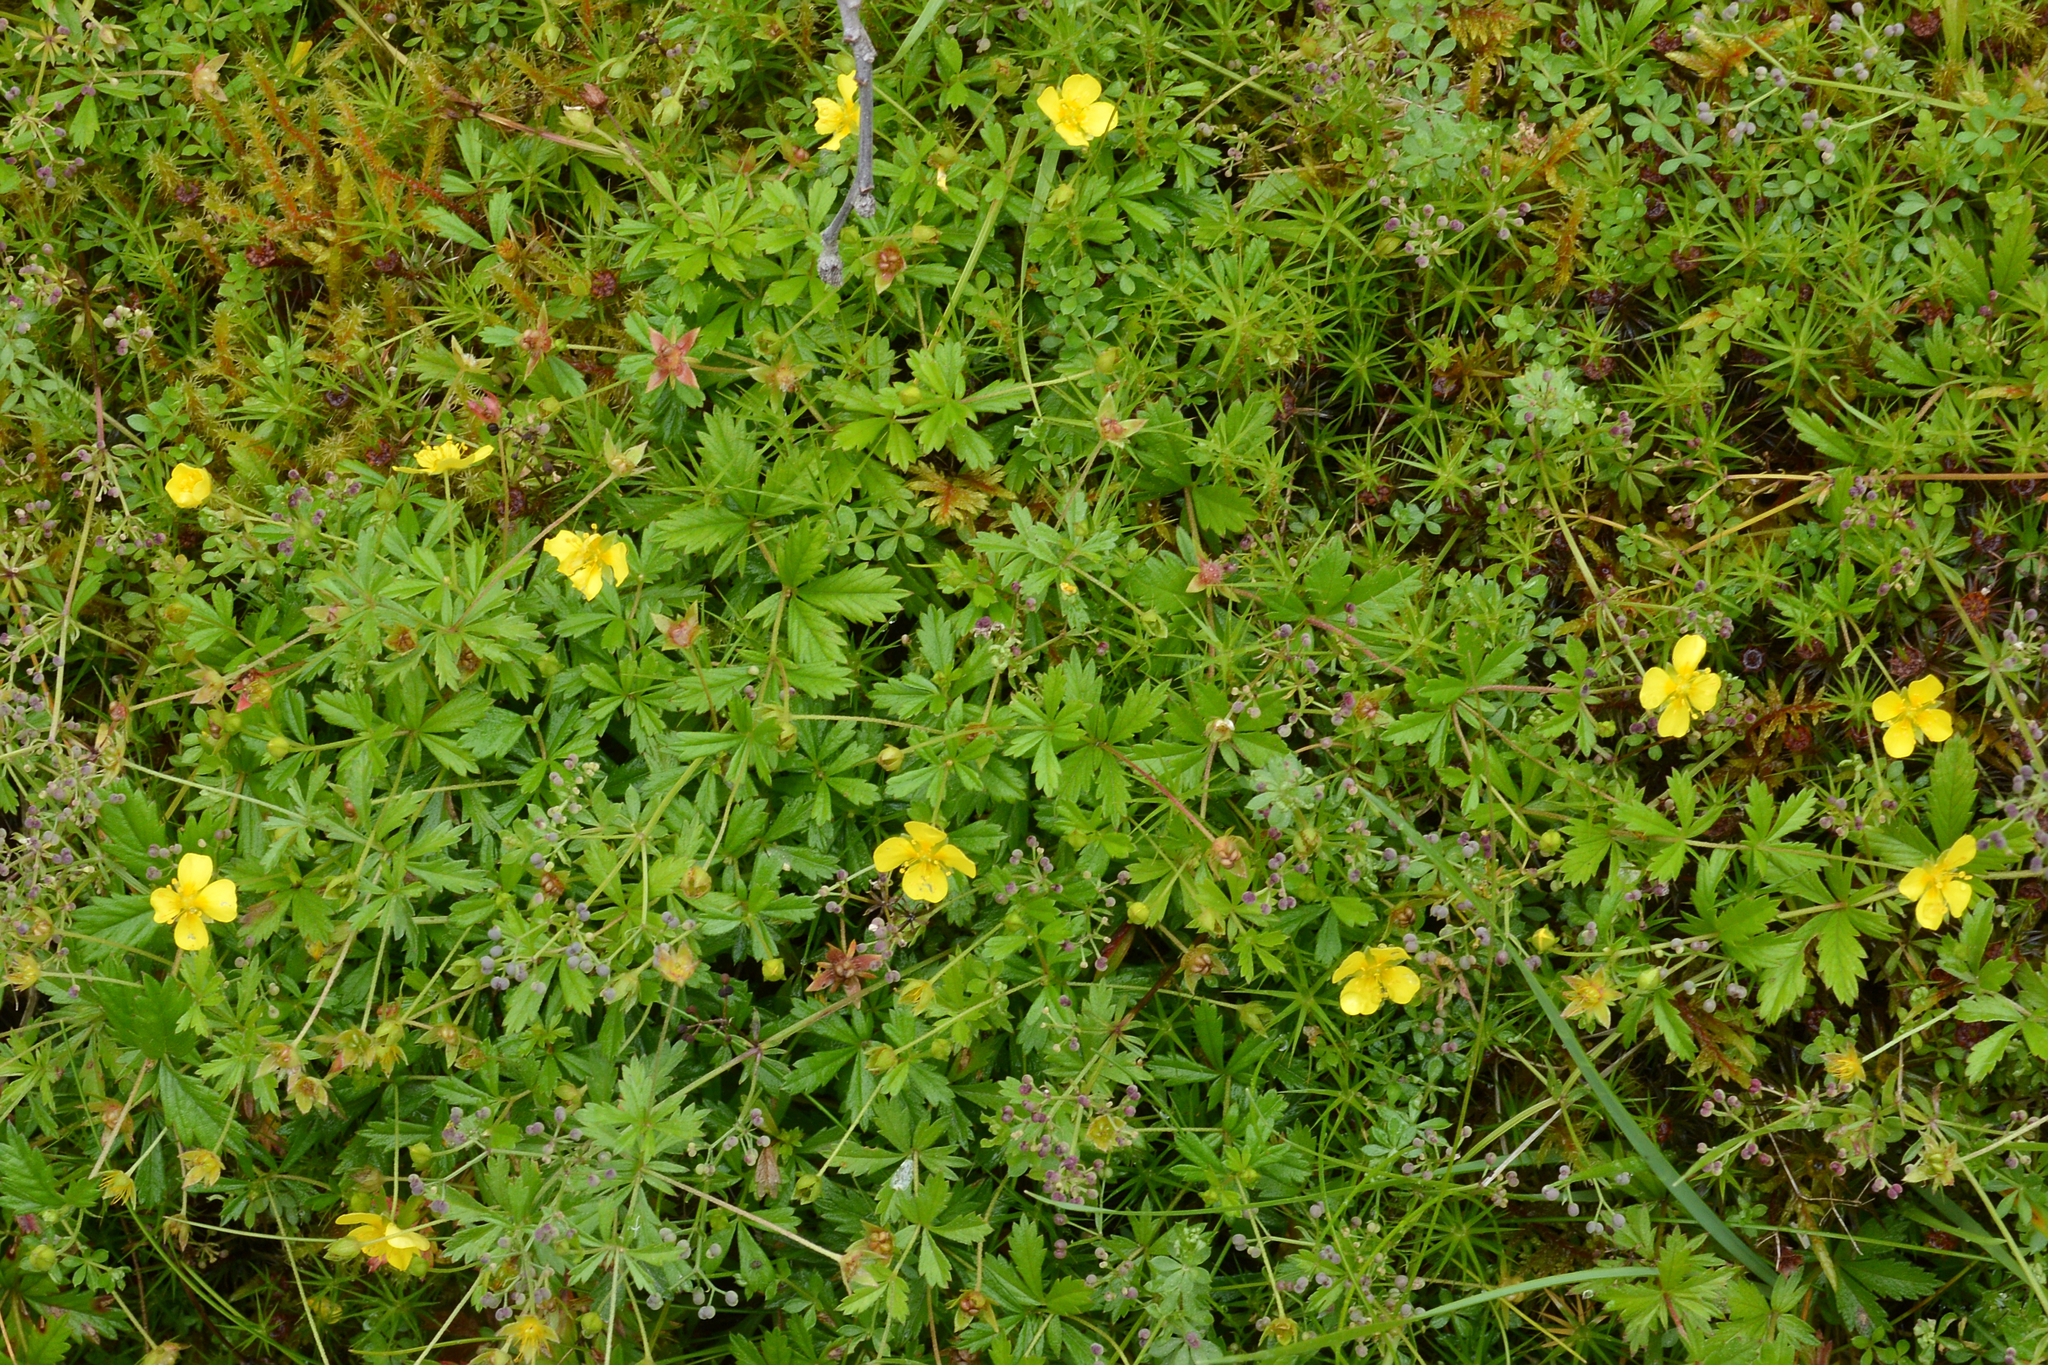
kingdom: Plantae
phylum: Tracheophyta
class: Magnoliopsida
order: Rosales
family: Rosaceae
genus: Potentilla
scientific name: Potentilla erecta
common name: Tormentil
